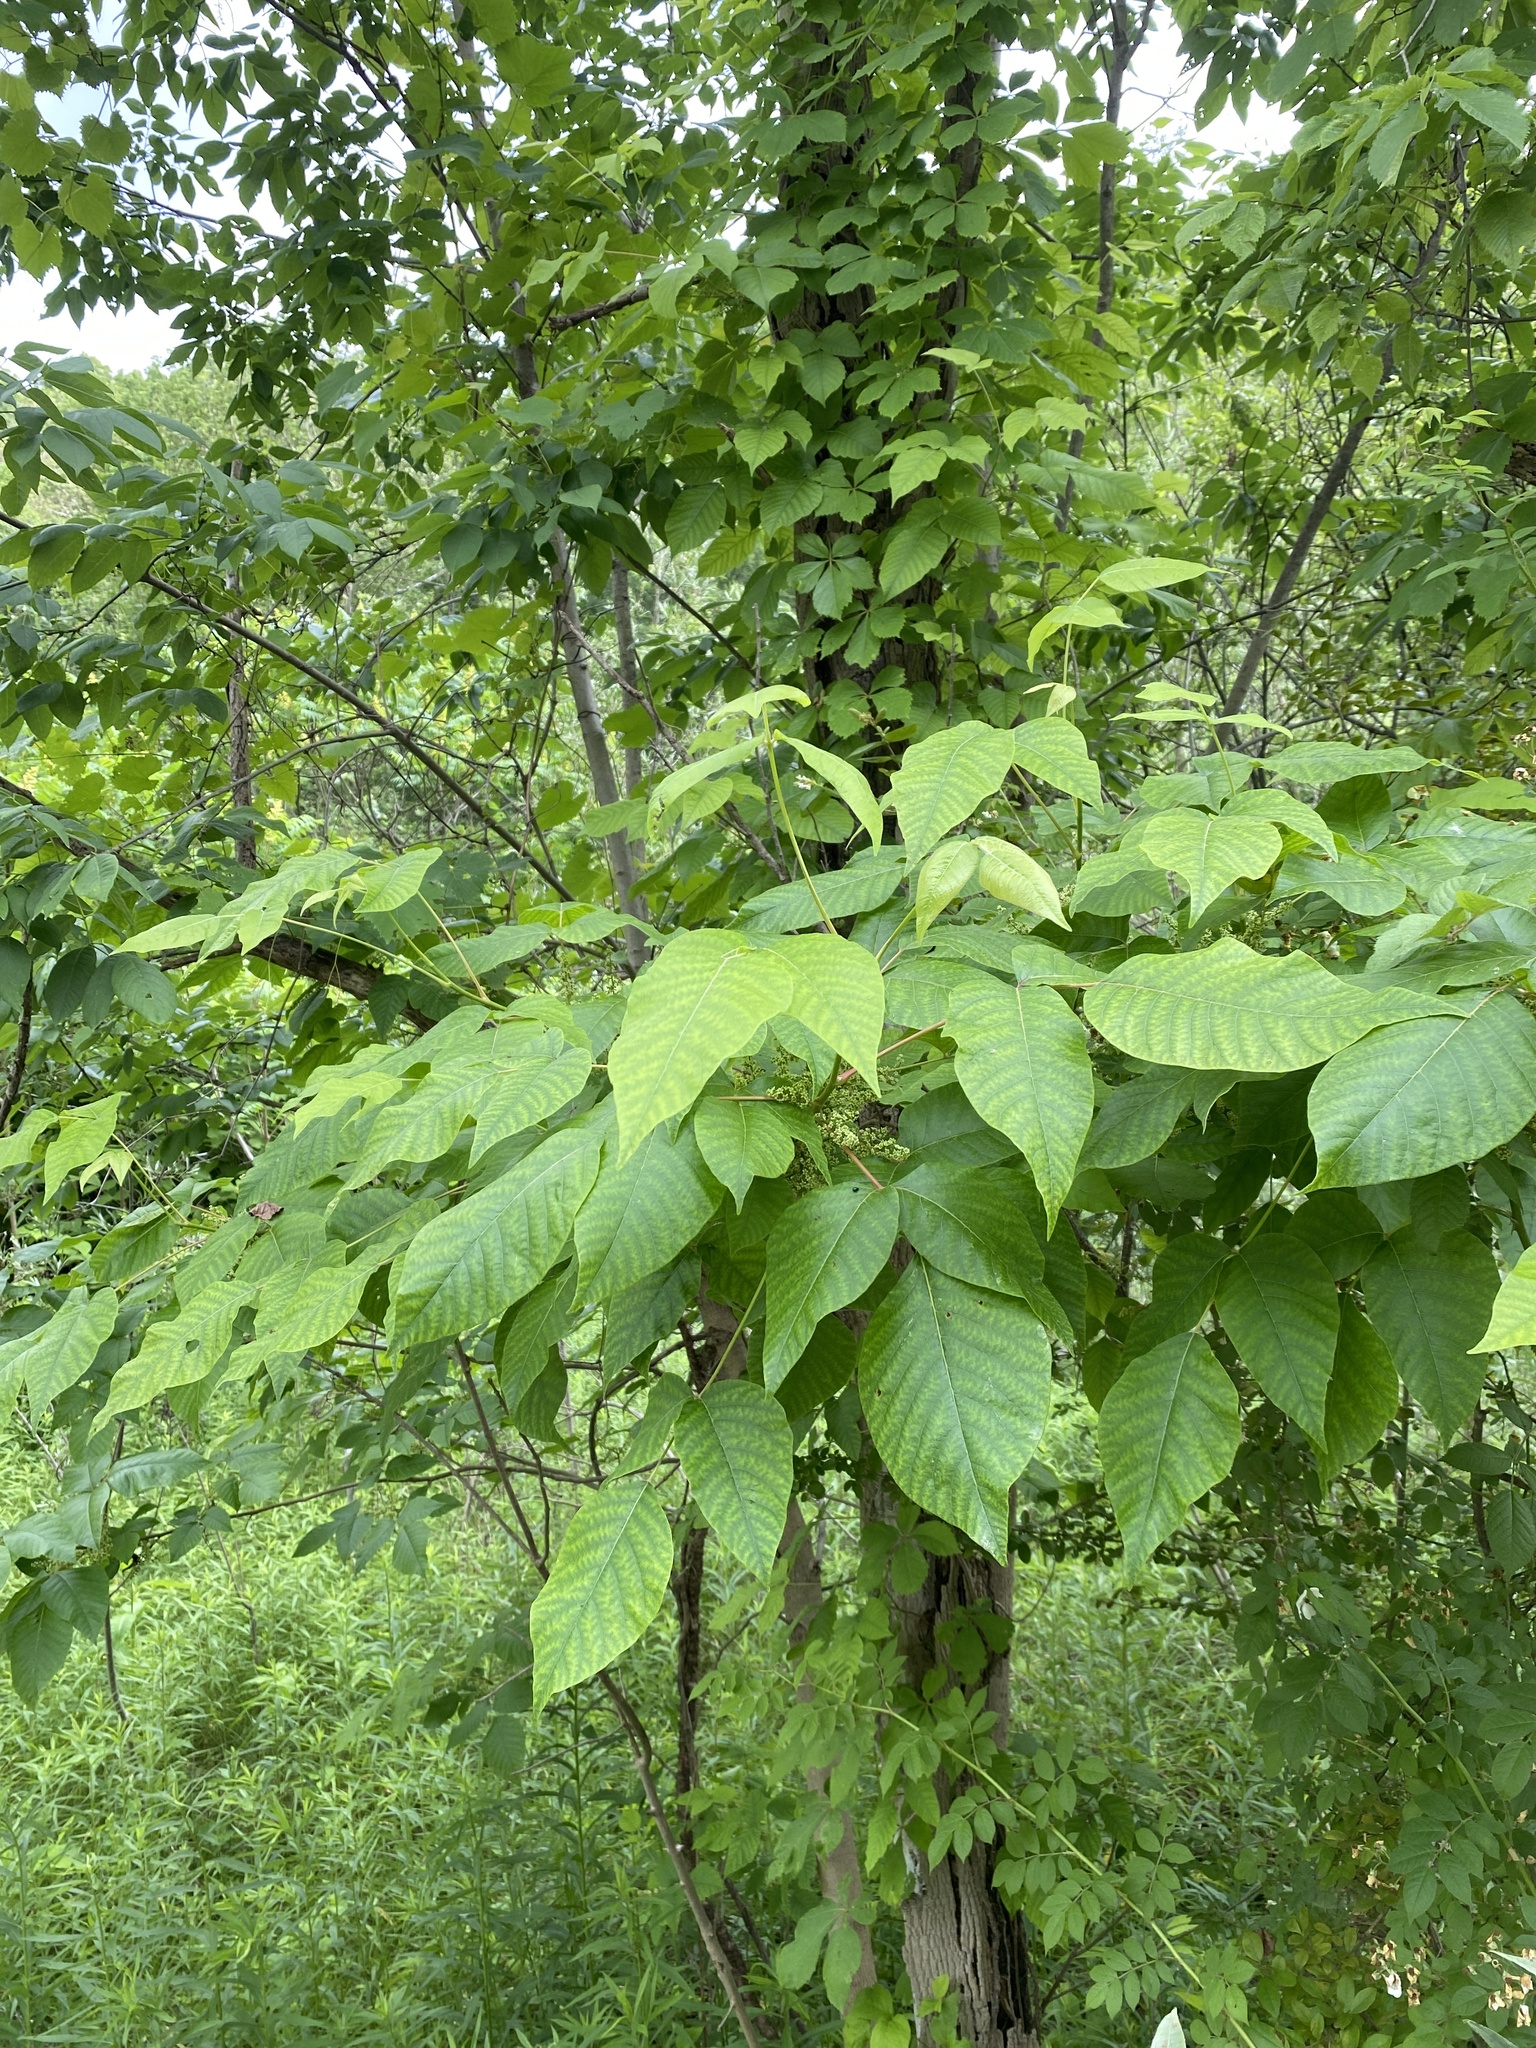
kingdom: Plantae
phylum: Tracheophyta
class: Magnoliopsida
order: Sapindales
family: Anacardiaceae
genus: Toxicodendron
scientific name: Toxicodendron radicans
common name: Poison ivy
